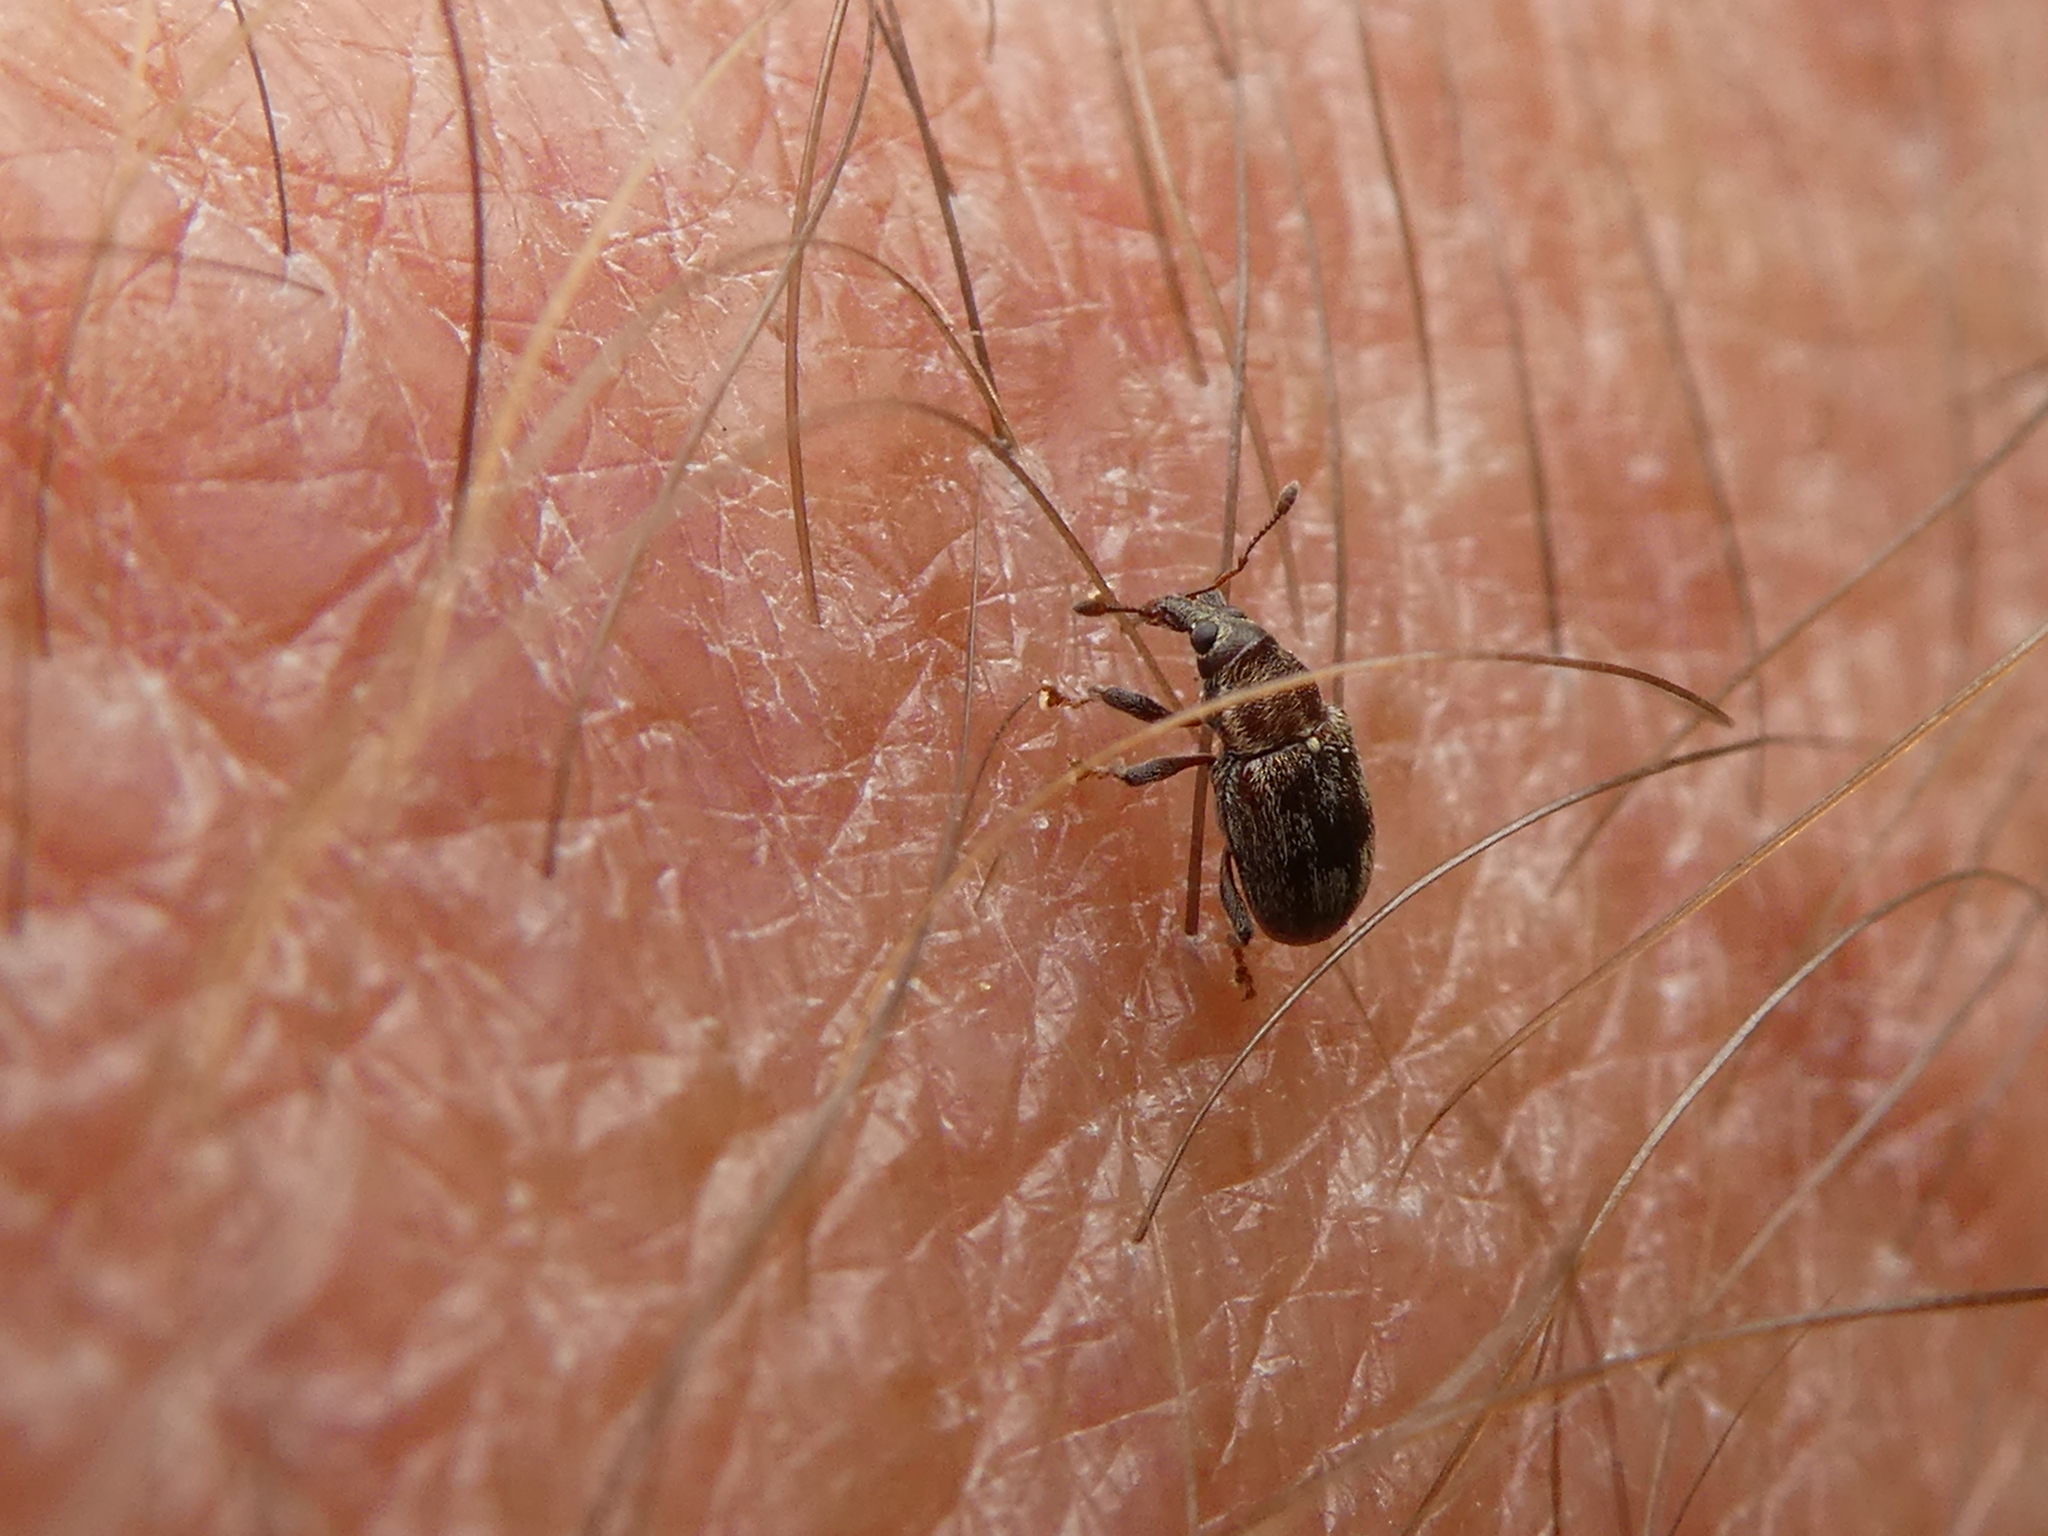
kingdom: Animalia
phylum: Arthropoda
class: Insecta
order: Coleoptera
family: Curculionidae
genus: Neomycta
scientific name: Neomycta rubida
